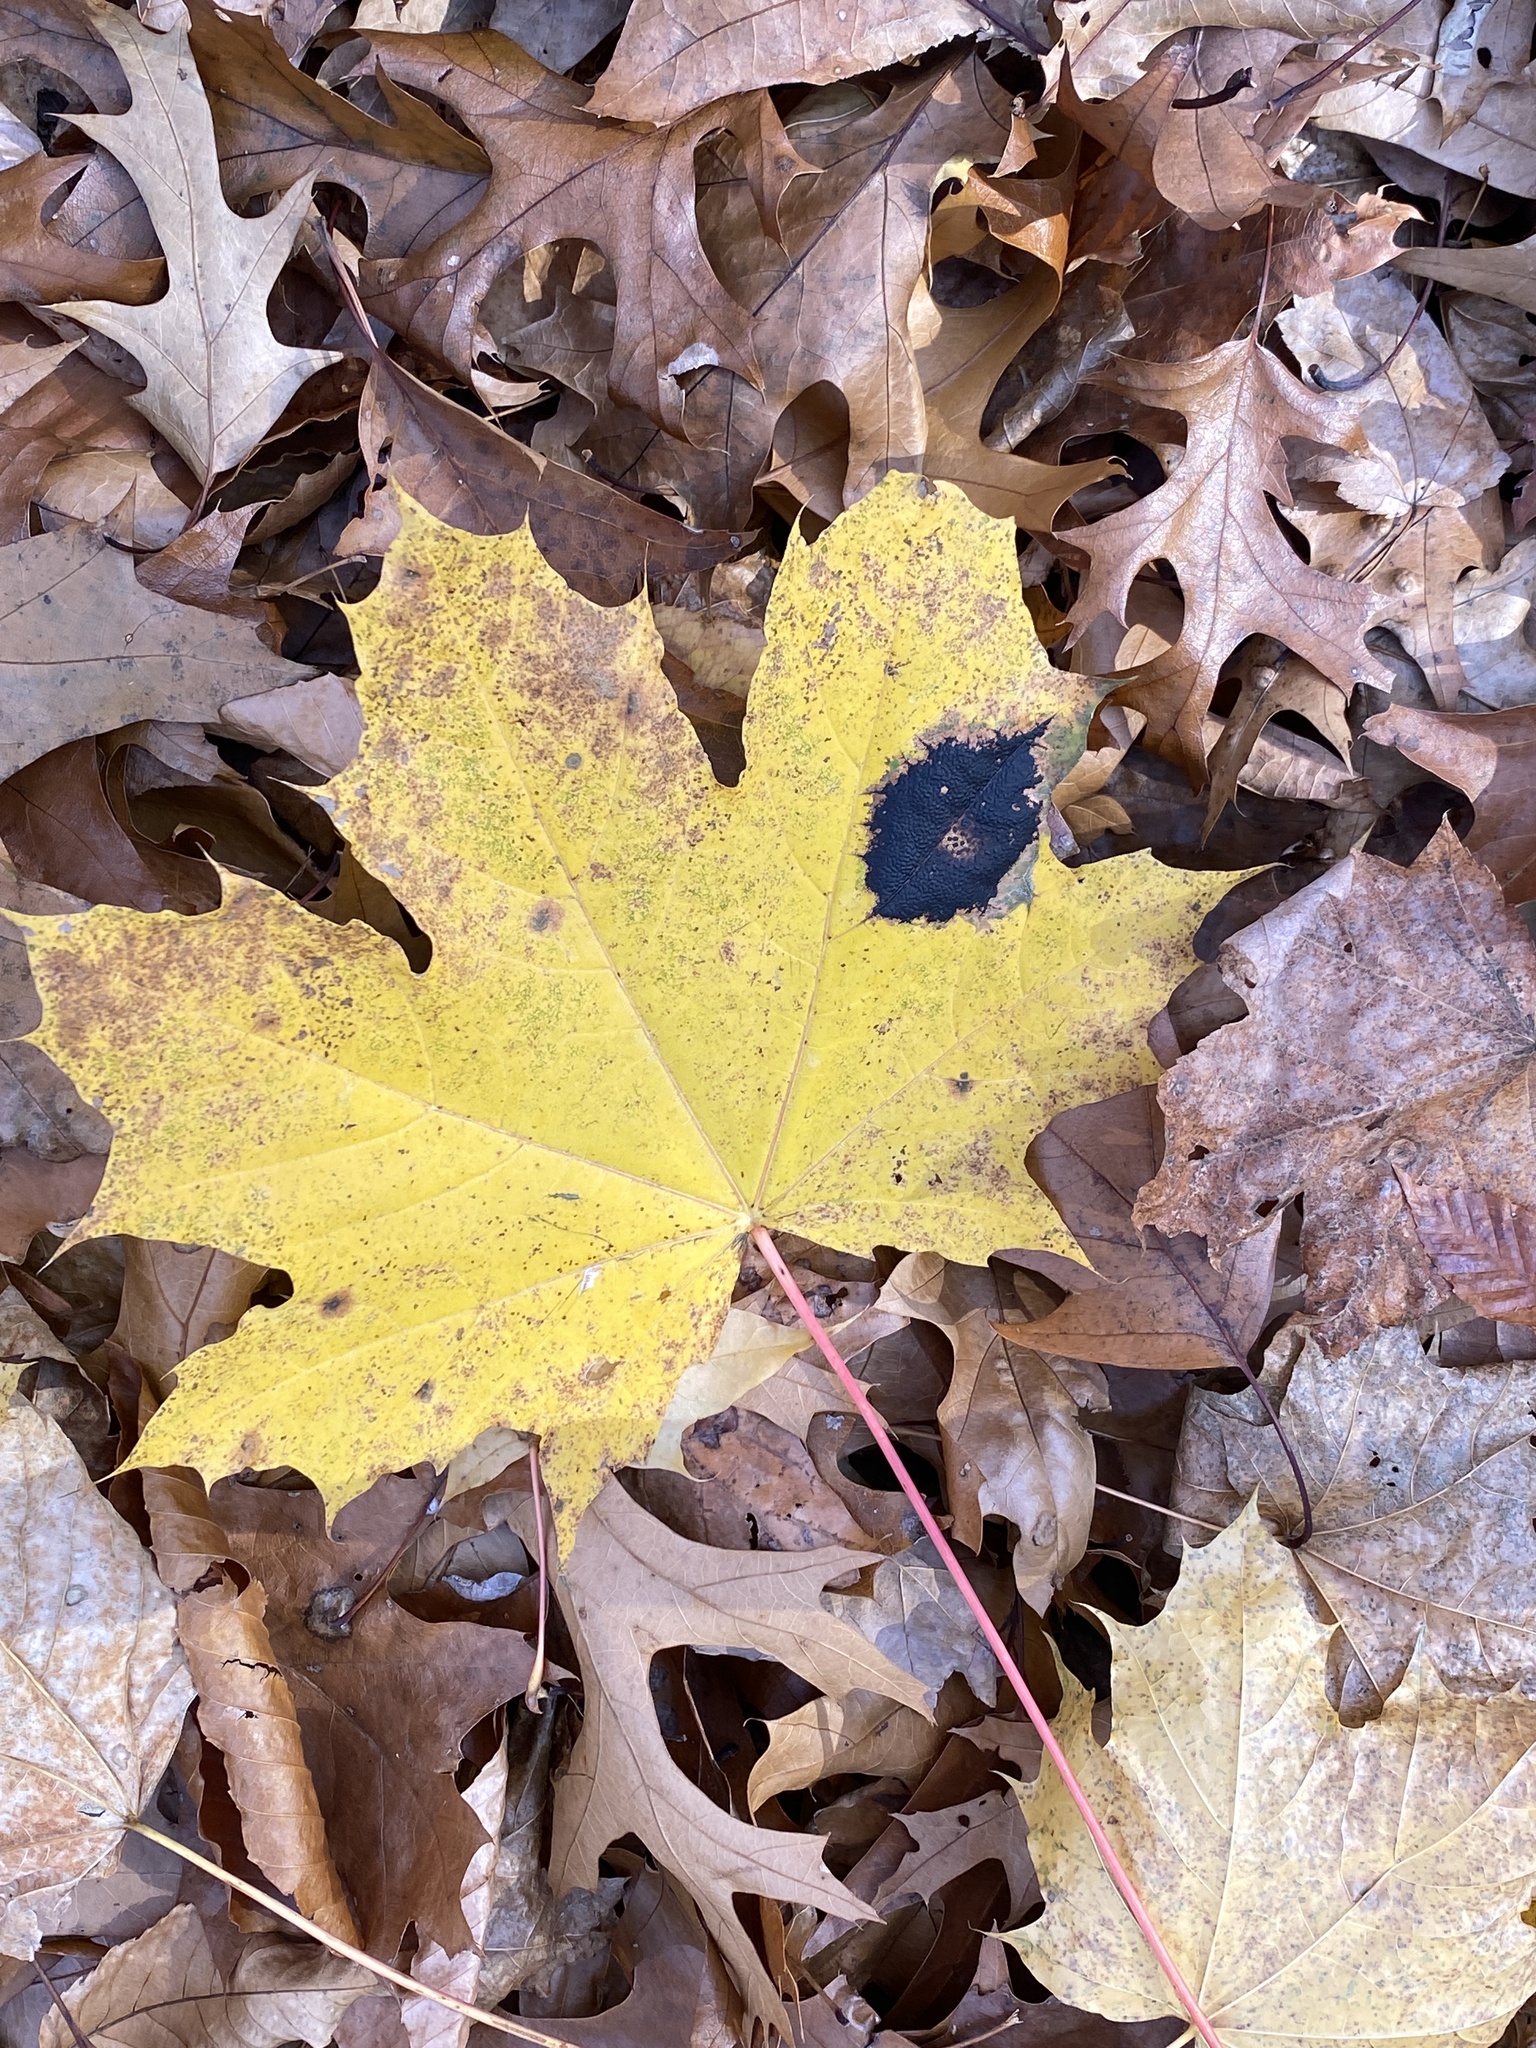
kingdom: Fungi
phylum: Ascomycota
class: Leotiomycetes
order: Rhytismatales
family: Rhytismataceae
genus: Rhytisma
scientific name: Rhytisma acerinum
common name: European tar spot
